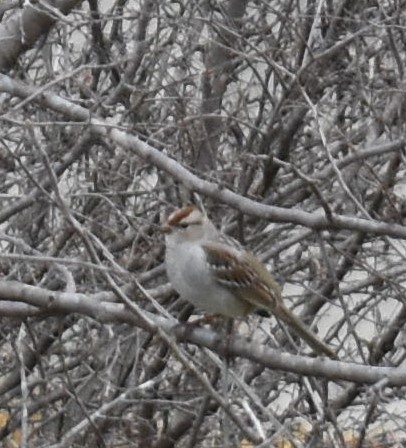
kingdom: Animalia
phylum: Chordata
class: Aves
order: Passeriformes
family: Passerellidae
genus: Zonotrichia
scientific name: Zonotrichia leucophrys
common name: White-crowned sparrow
